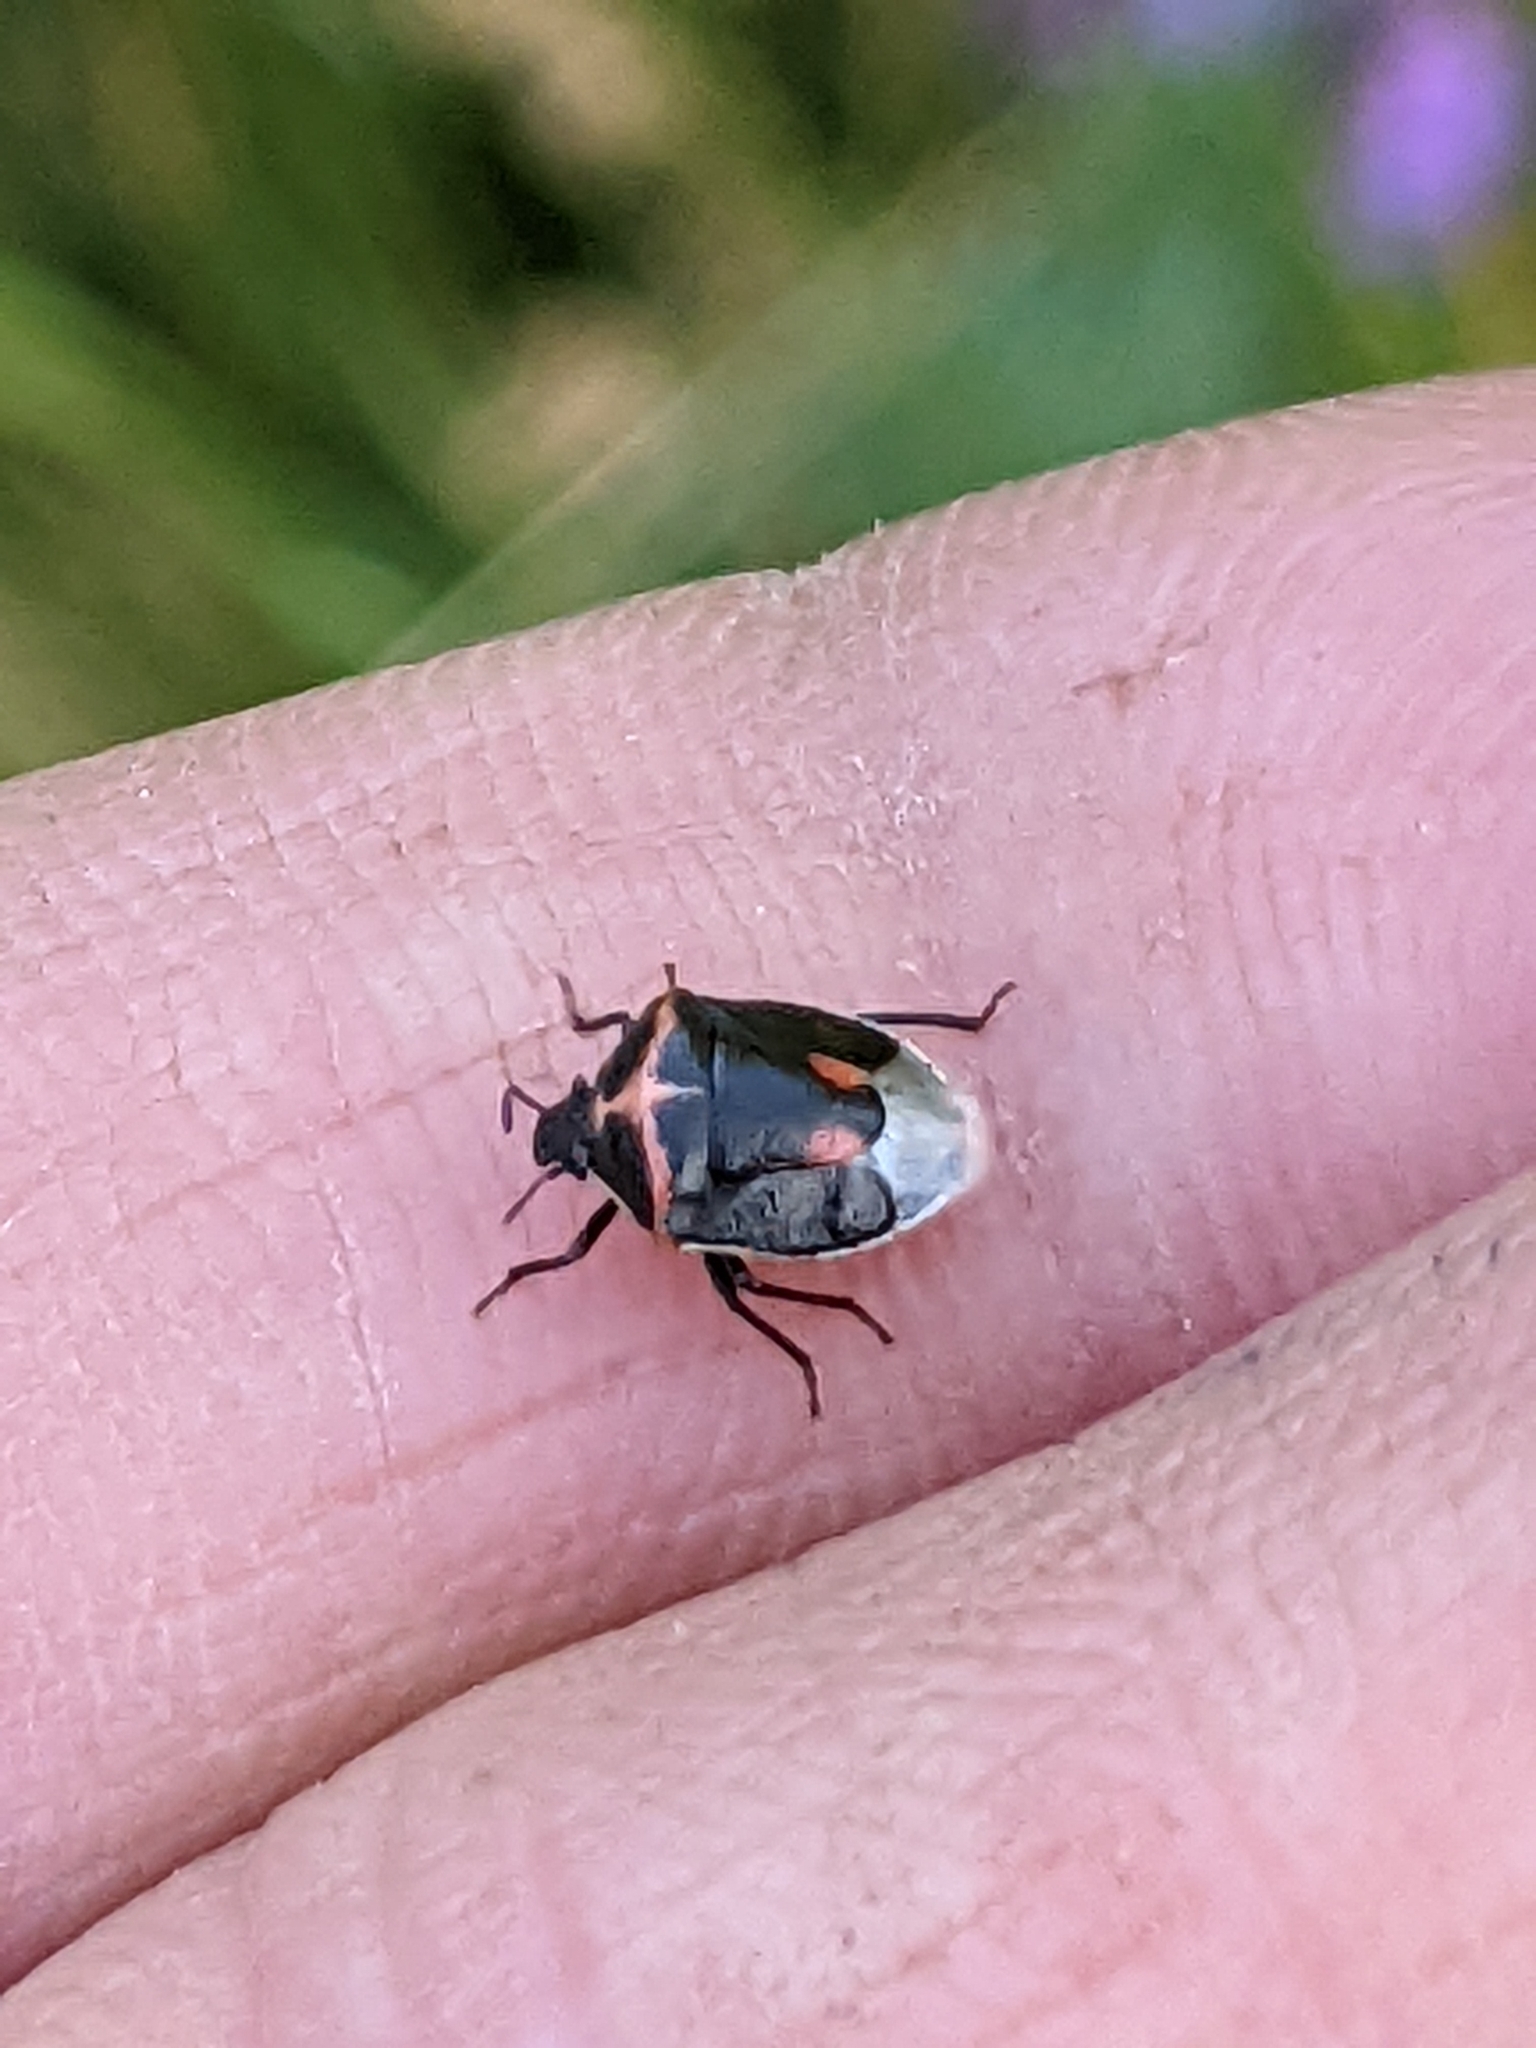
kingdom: Animalia
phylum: Arthropoda
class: Insecta
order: Hemiptera
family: Pentatomidae
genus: Cosmopepla
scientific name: Cosmopepla lintneriana
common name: Twice-stabbed stink bug
